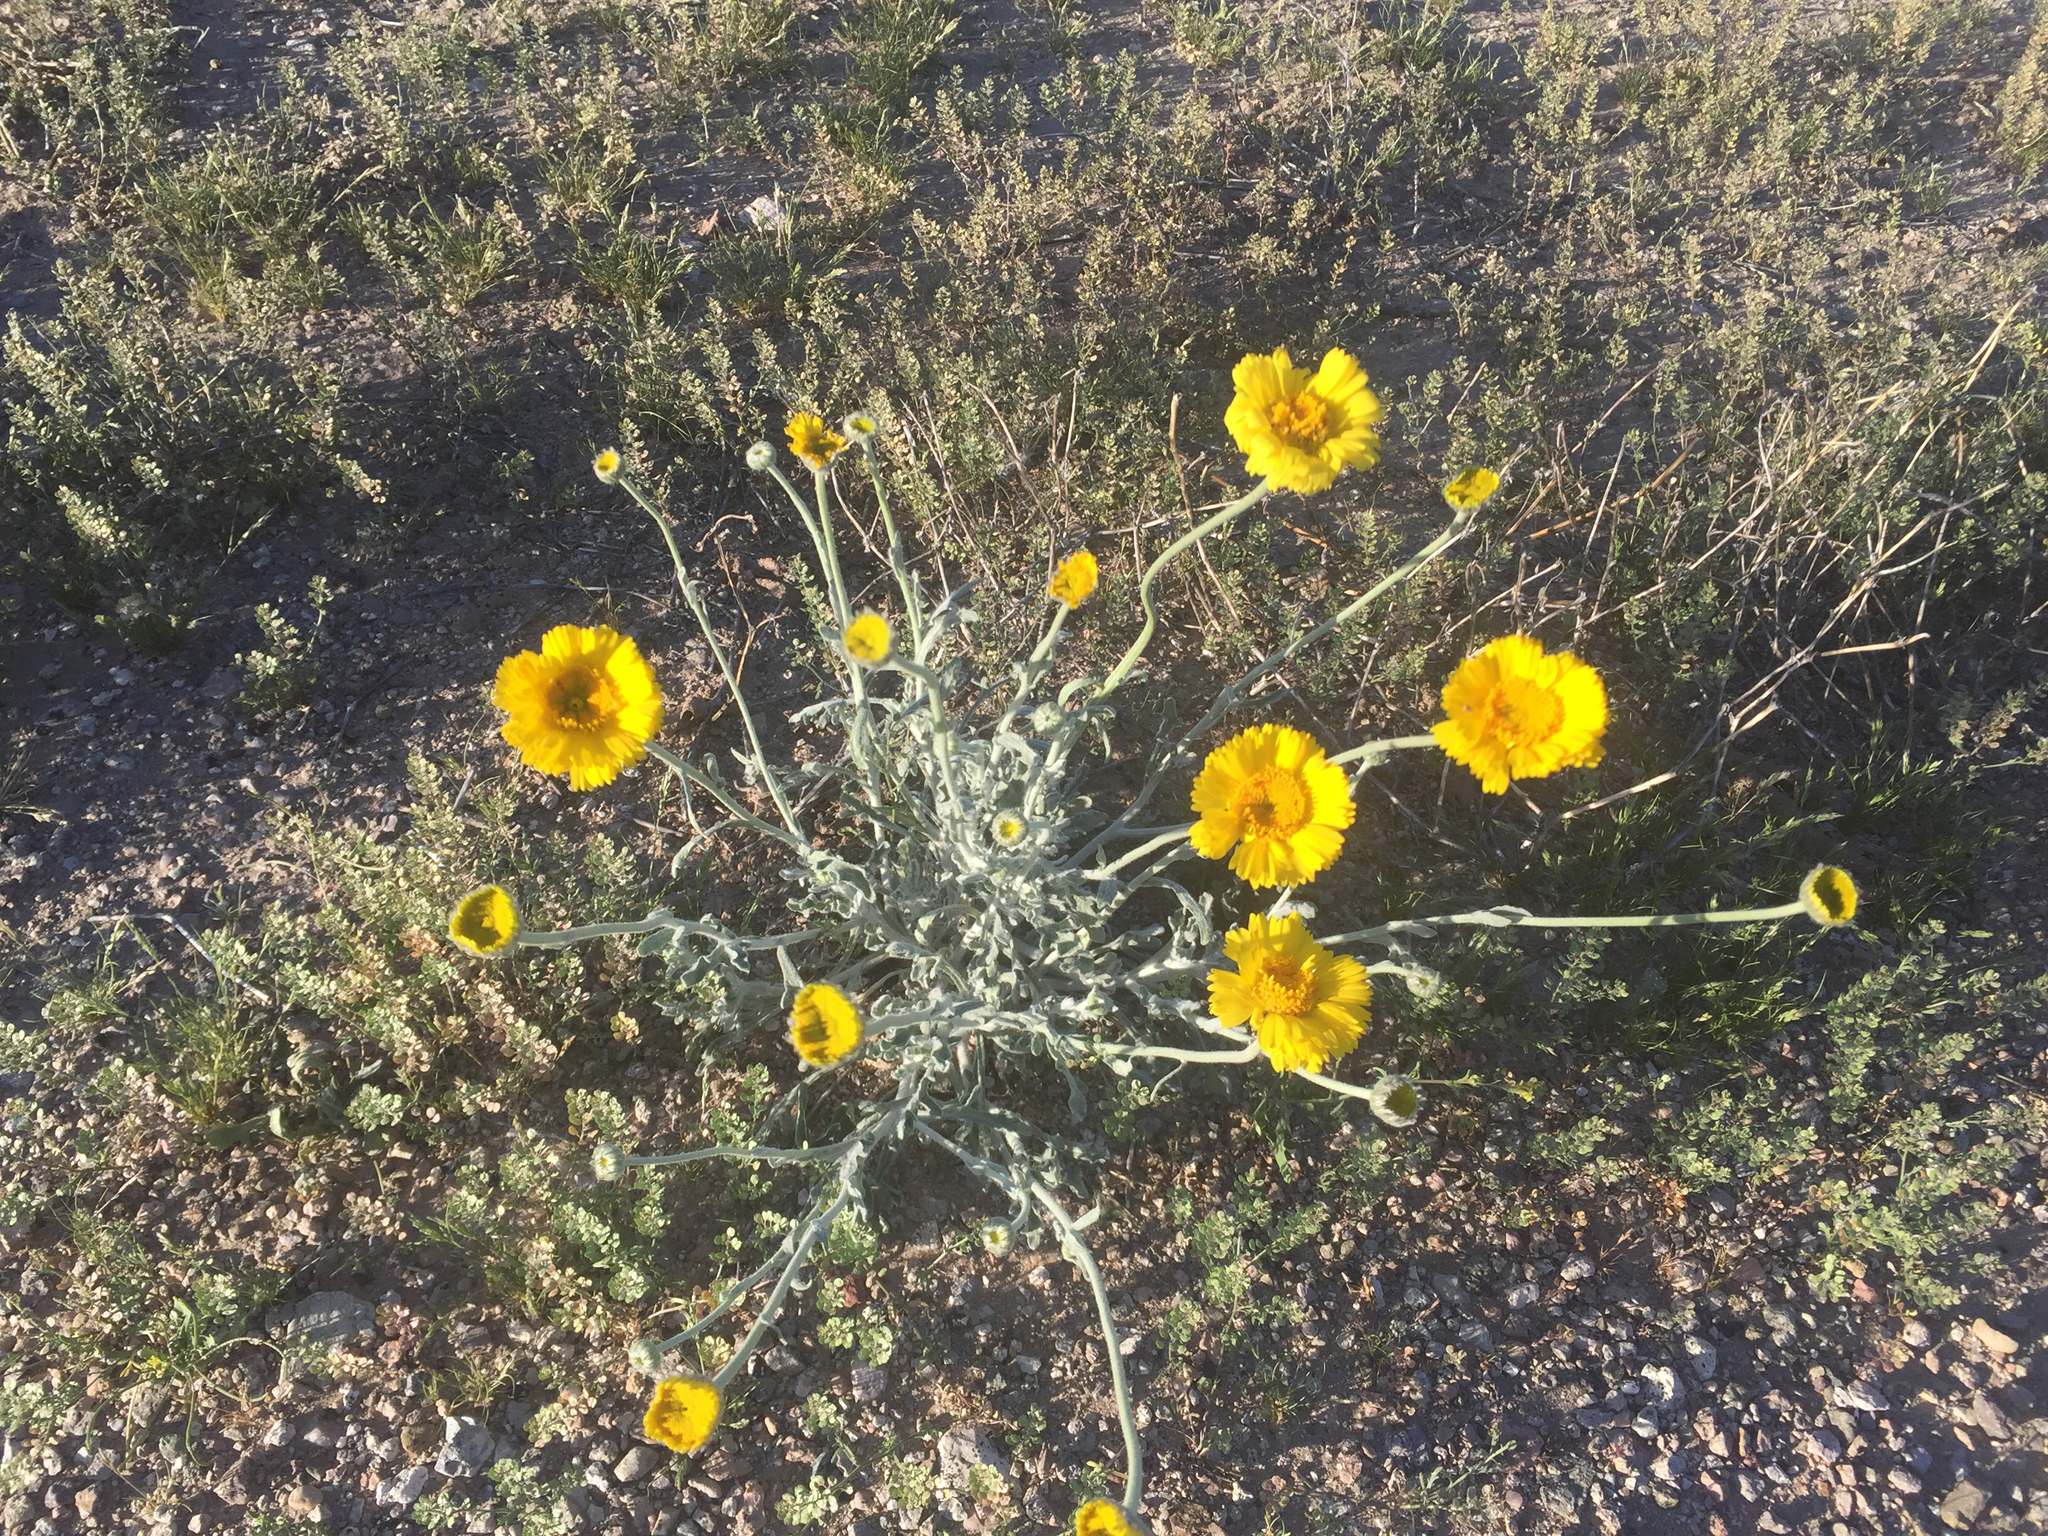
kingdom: Plantae
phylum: Tracheophyta
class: Magnoliopsida
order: Asterales
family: Asteraceae
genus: Baileya
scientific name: Baileya multiradiata
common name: Desert-marigold
